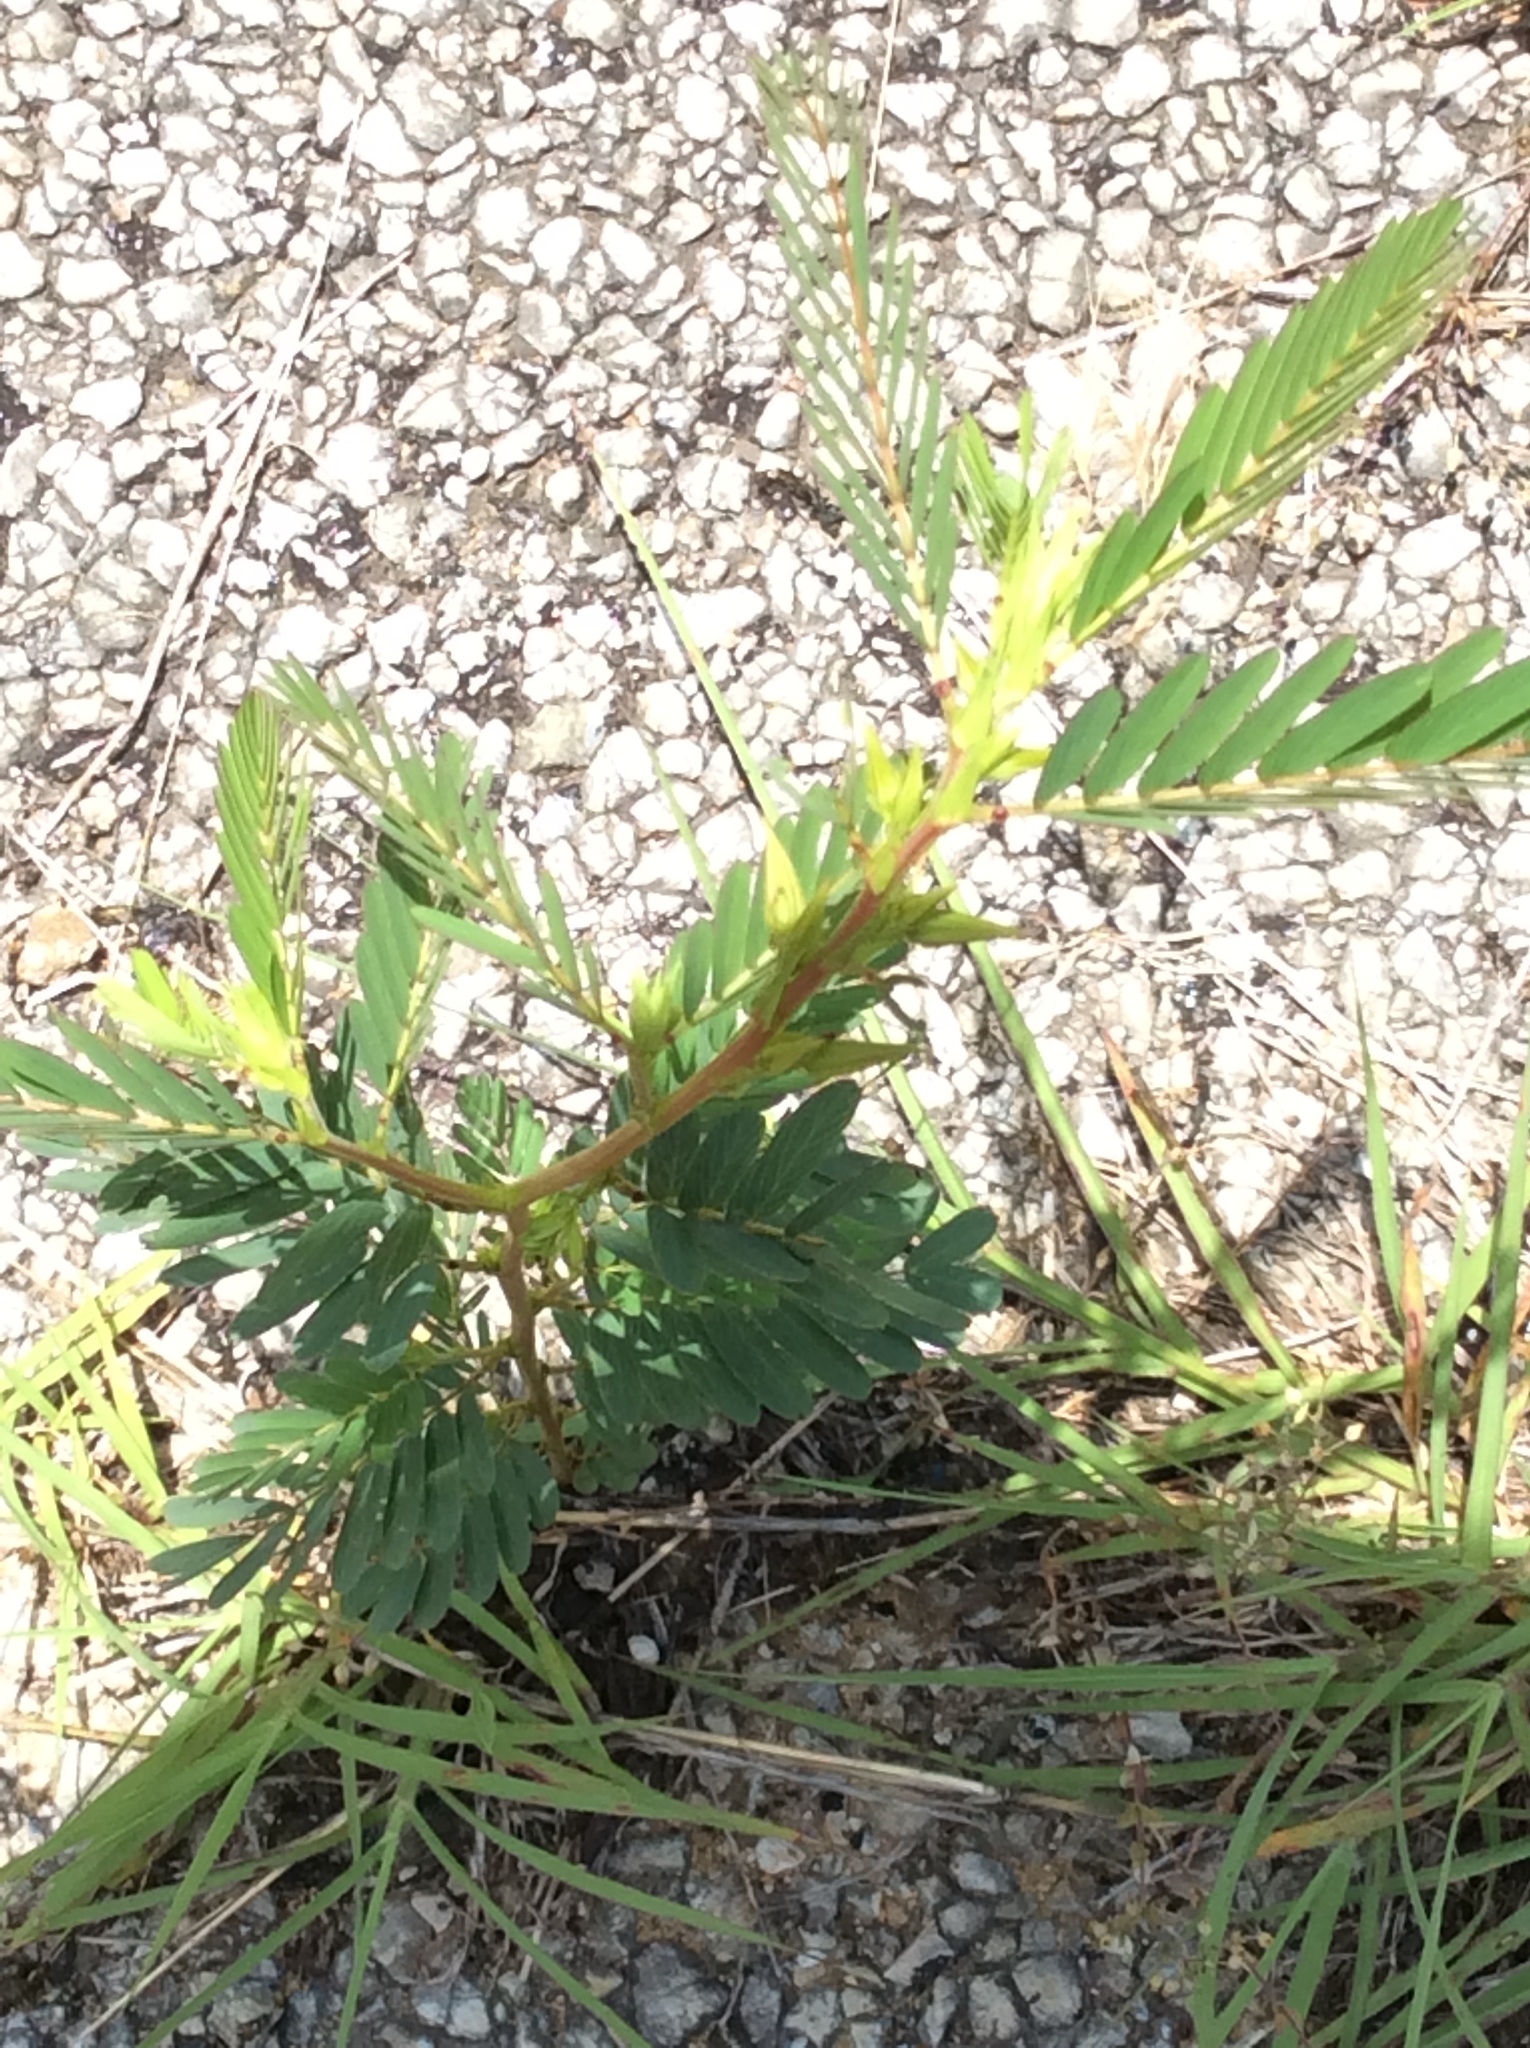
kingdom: Plantae
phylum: Tracheophyta
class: Magnoliopsida
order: Fabales
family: Fabaceae
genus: Chamaecrista
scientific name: Chamaecrista fasciculata
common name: Golden cassia
